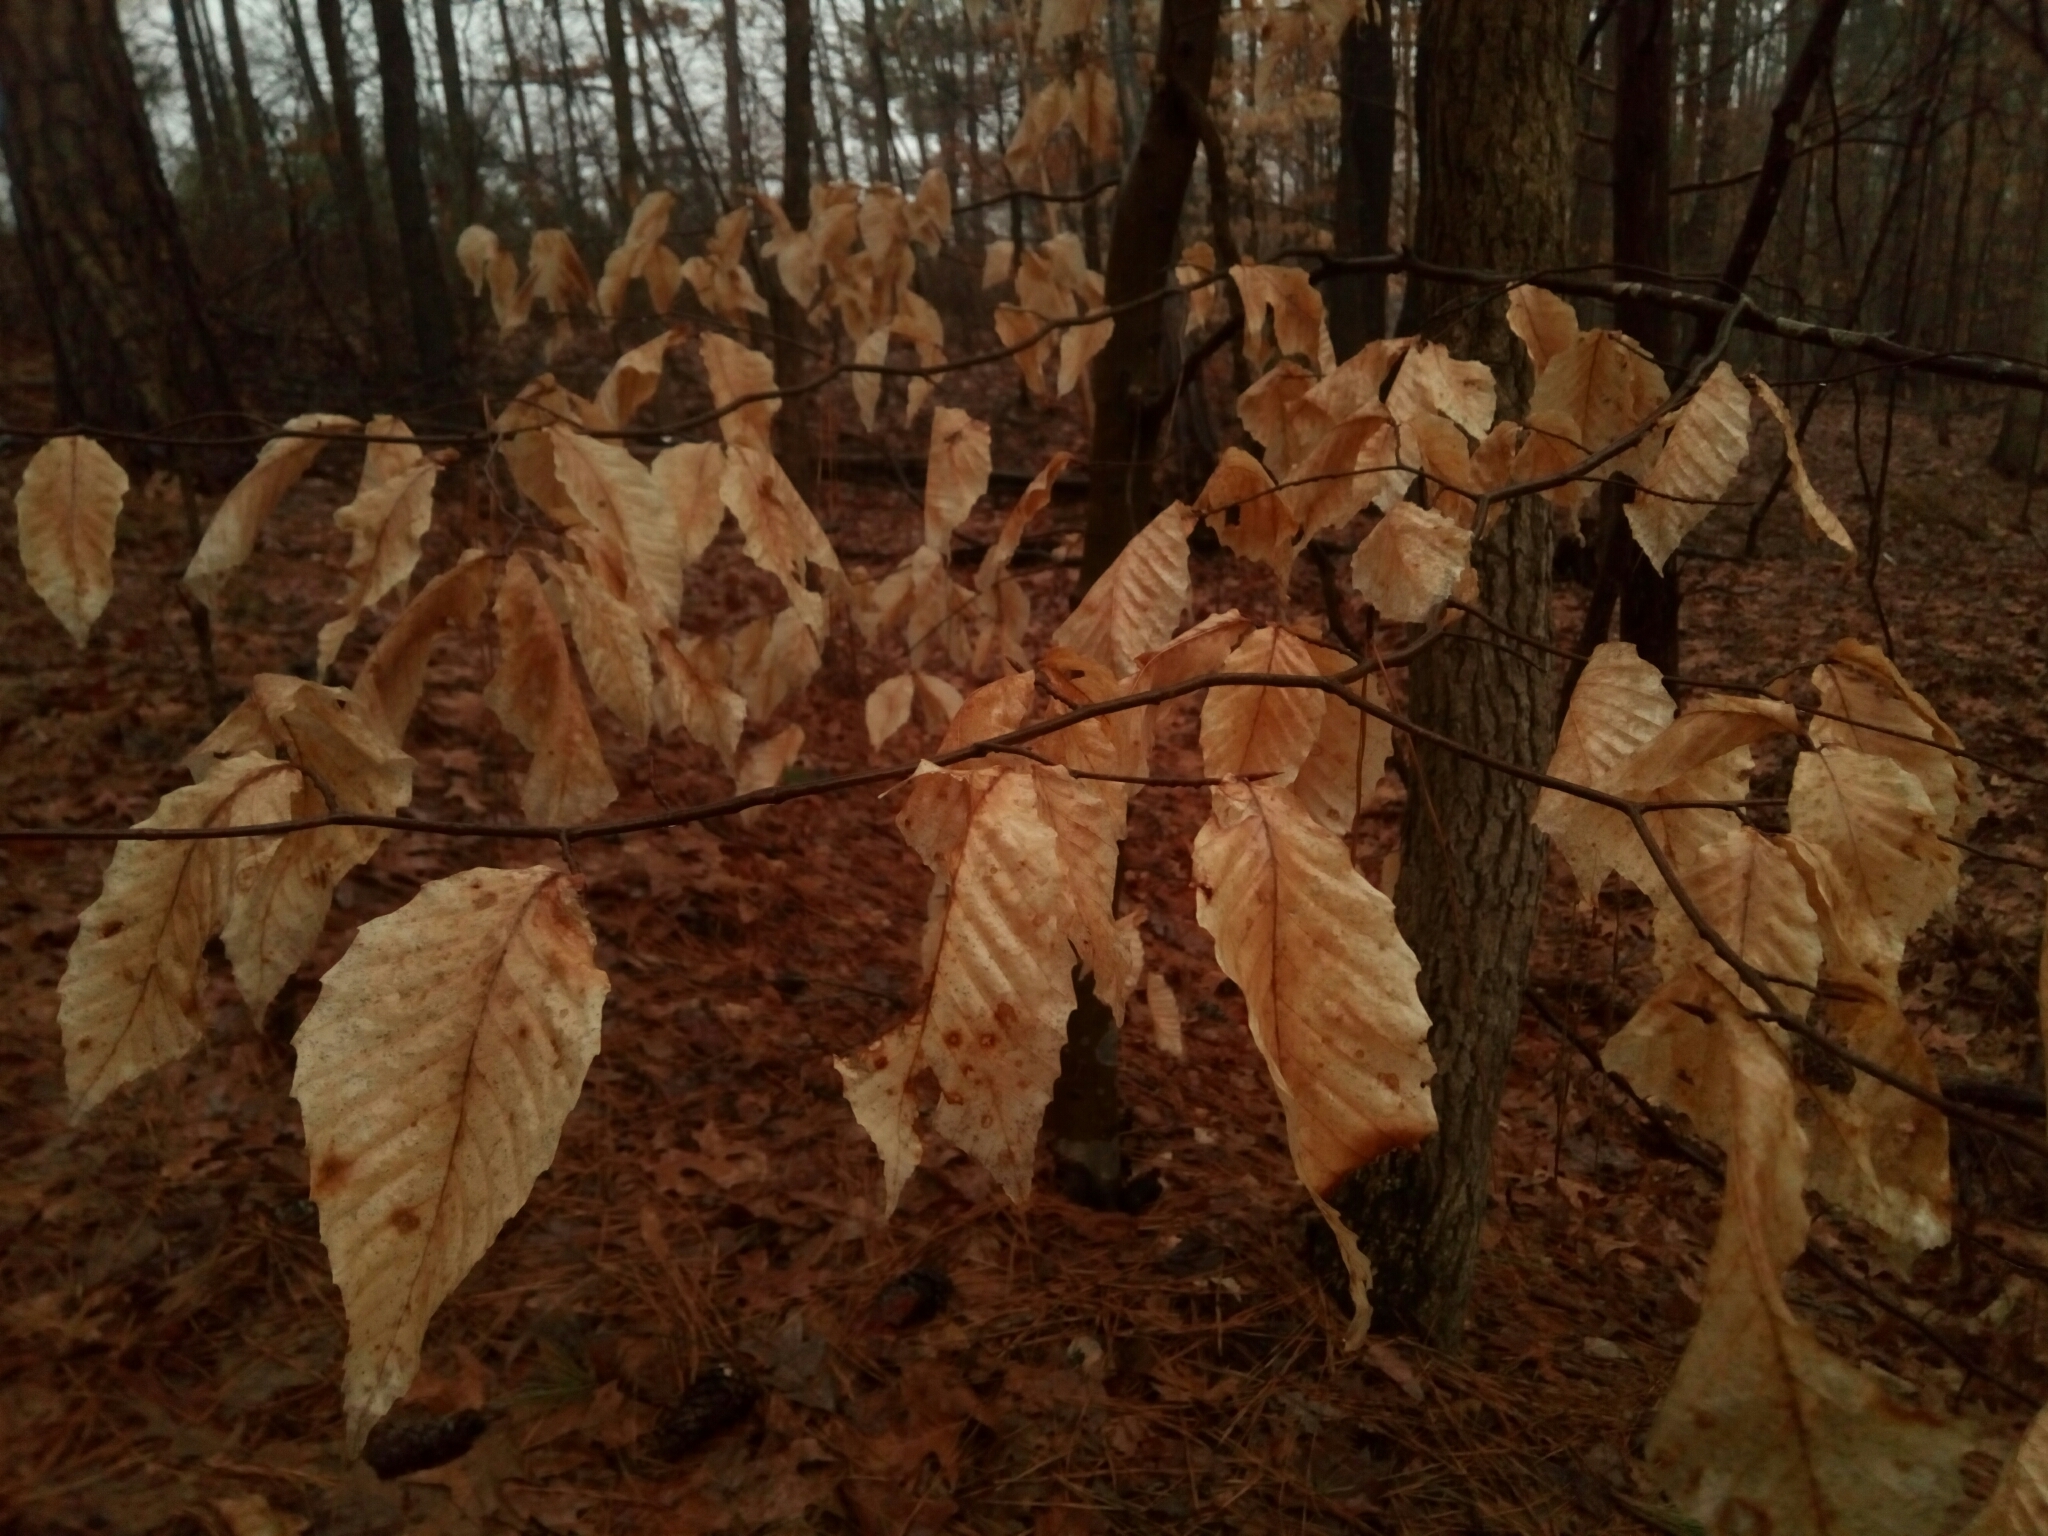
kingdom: Plantae
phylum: Tracheophyta
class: Magnoliopsida
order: Fagales
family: Fagaceae
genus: Fagus
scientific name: Fagus grandifolia
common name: American beech
